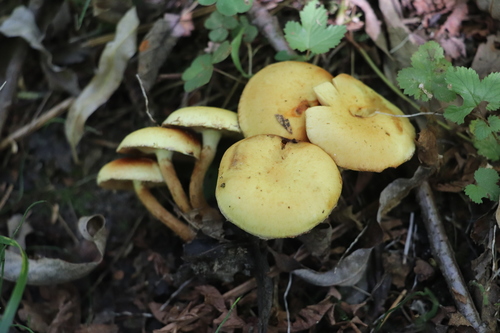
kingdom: Fungi
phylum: Basidiomycota
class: Agaricomycetes
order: Agaricales
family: Strophariaceae
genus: Pholiota
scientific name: Pholiota
